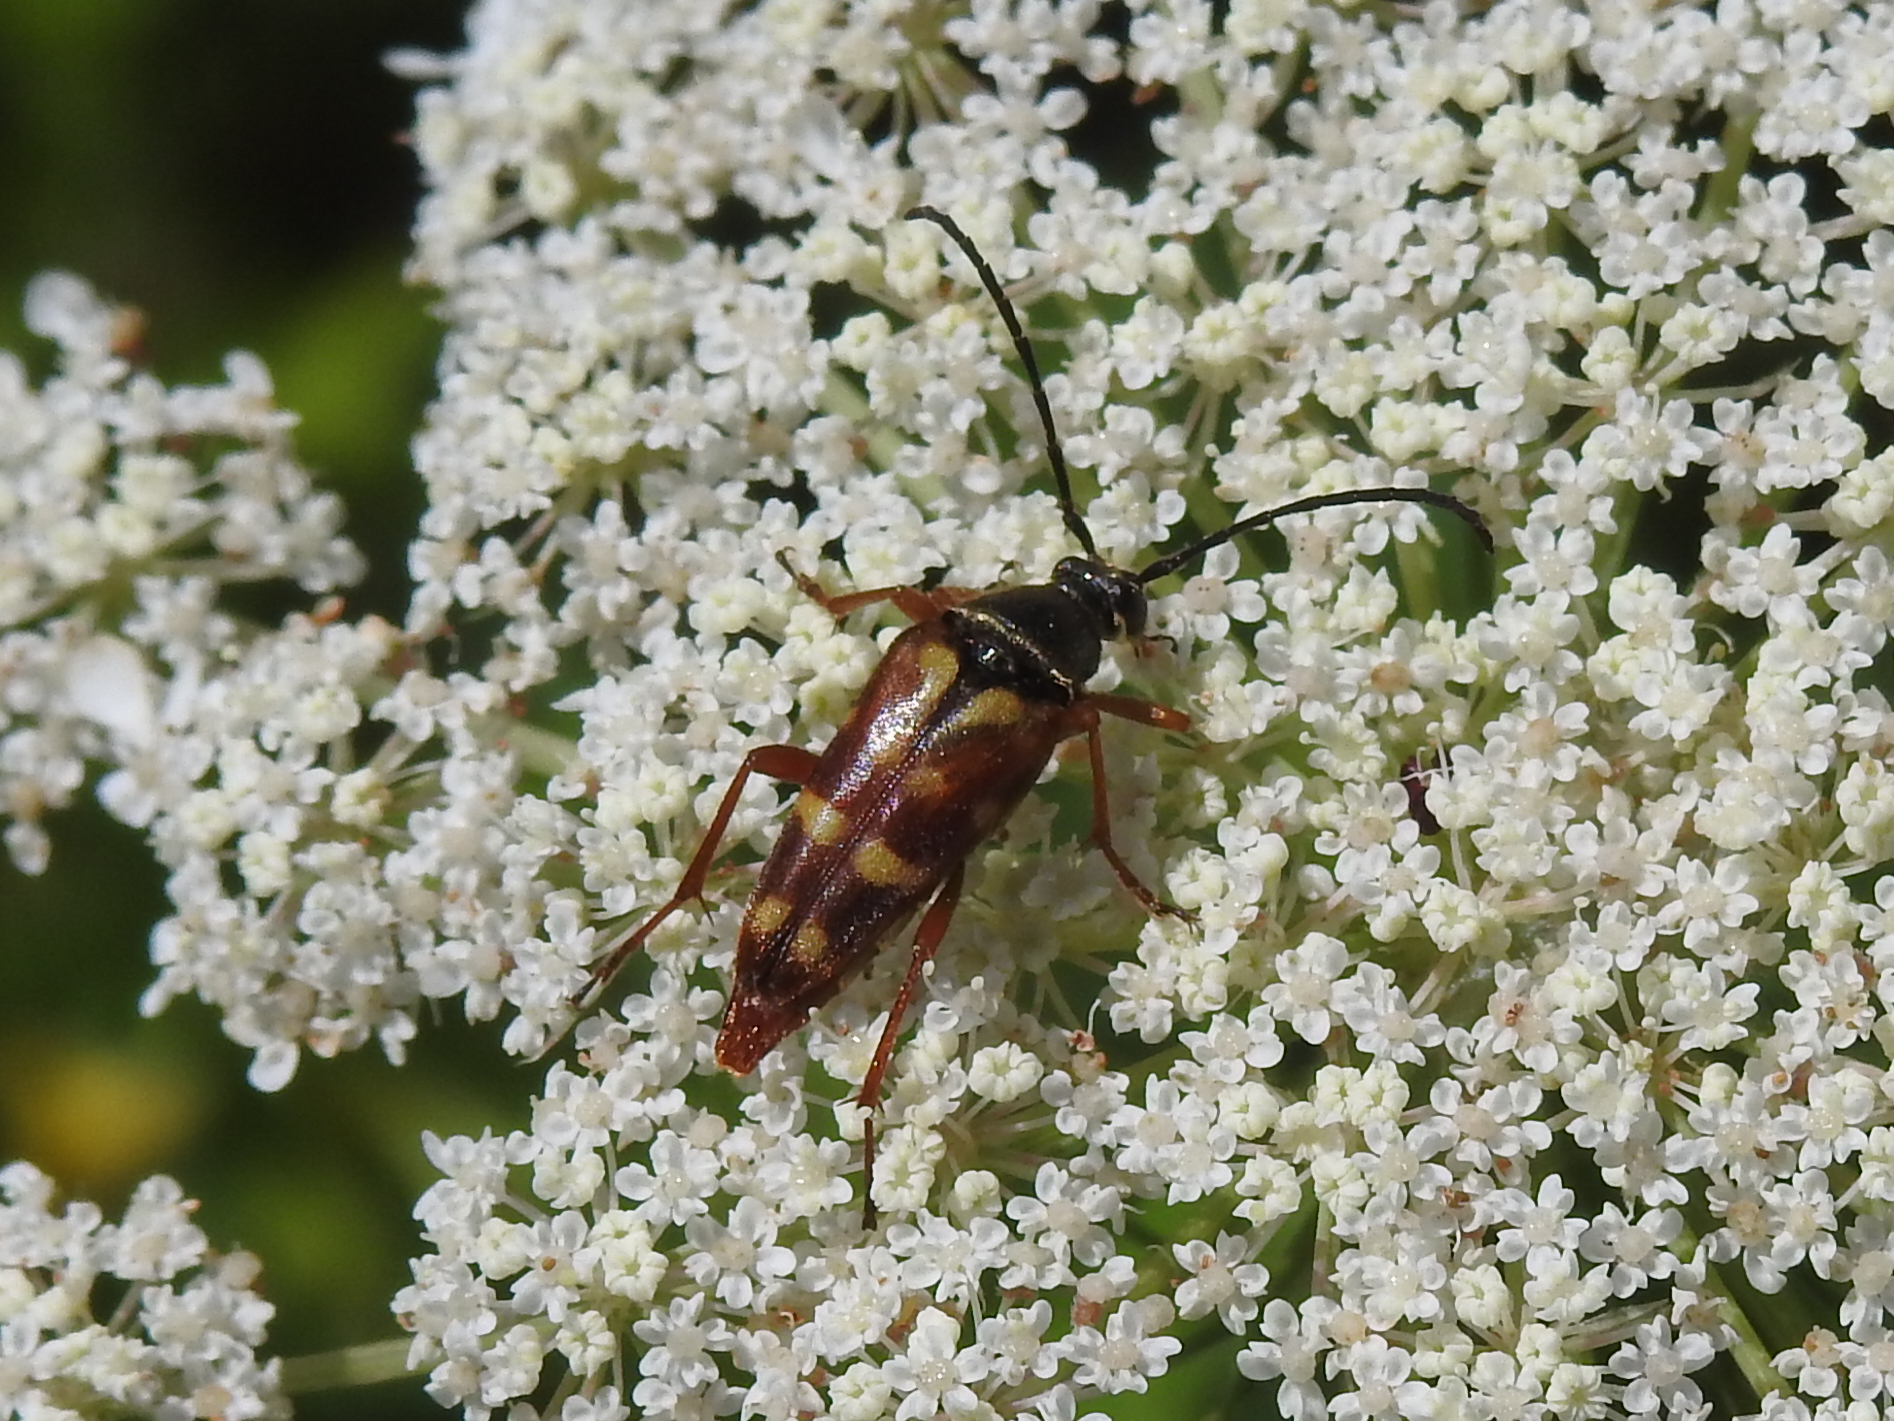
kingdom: Animalia
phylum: Arthropoda
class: Insecta
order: Coleoptera
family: Cerambycidae
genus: Typocerus
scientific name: Typocerus velutinus
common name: Banded longhorn beetle
